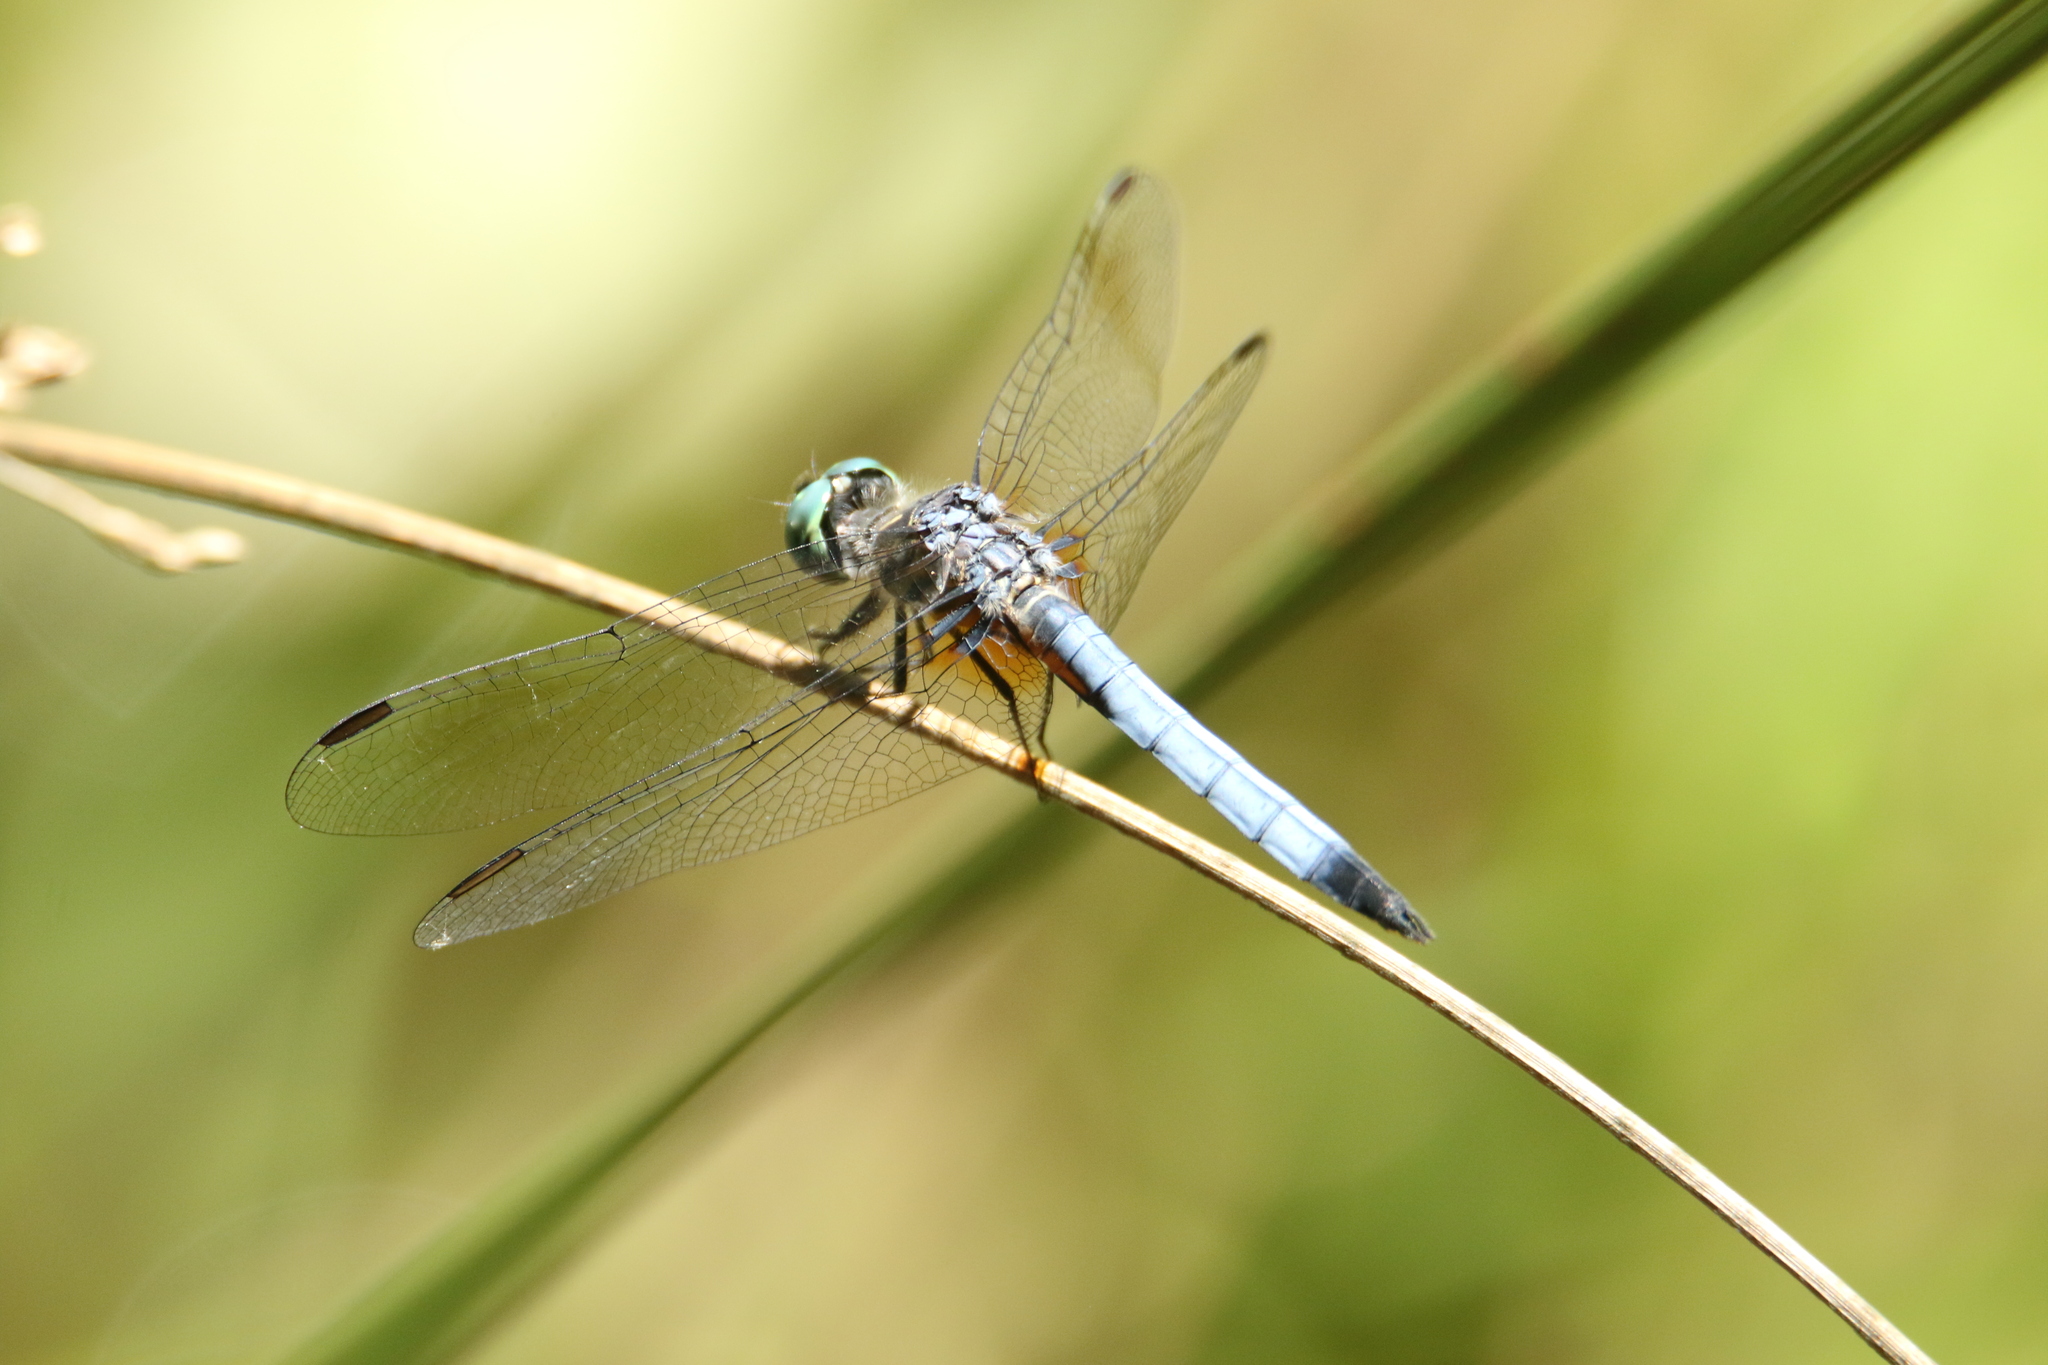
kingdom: Animalia
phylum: Arthropoda
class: Insecta
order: Odonata
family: Libellulidae
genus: Pachydiplax
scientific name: Pachydiplax longipennis
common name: Blue dasher
